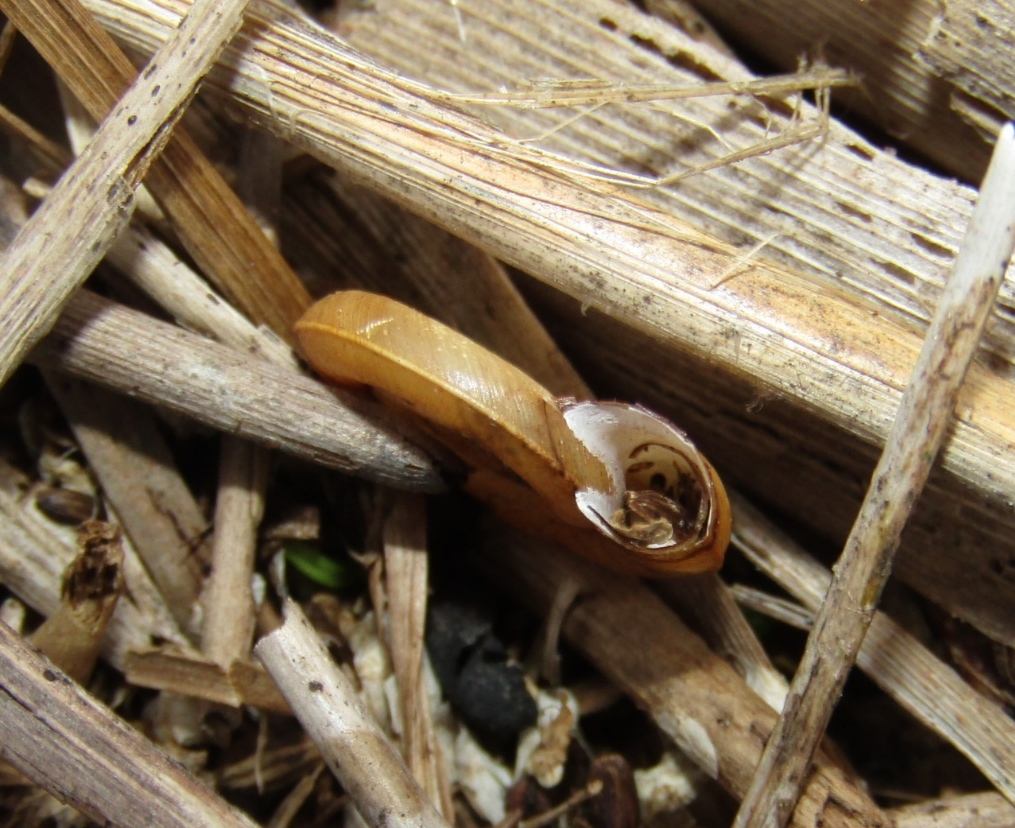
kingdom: Animalia
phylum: Mollusca
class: Gastropoda
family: Planorbidae
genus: Planorbis
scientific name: Planorbis planorbis
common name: Margined ramshorn
